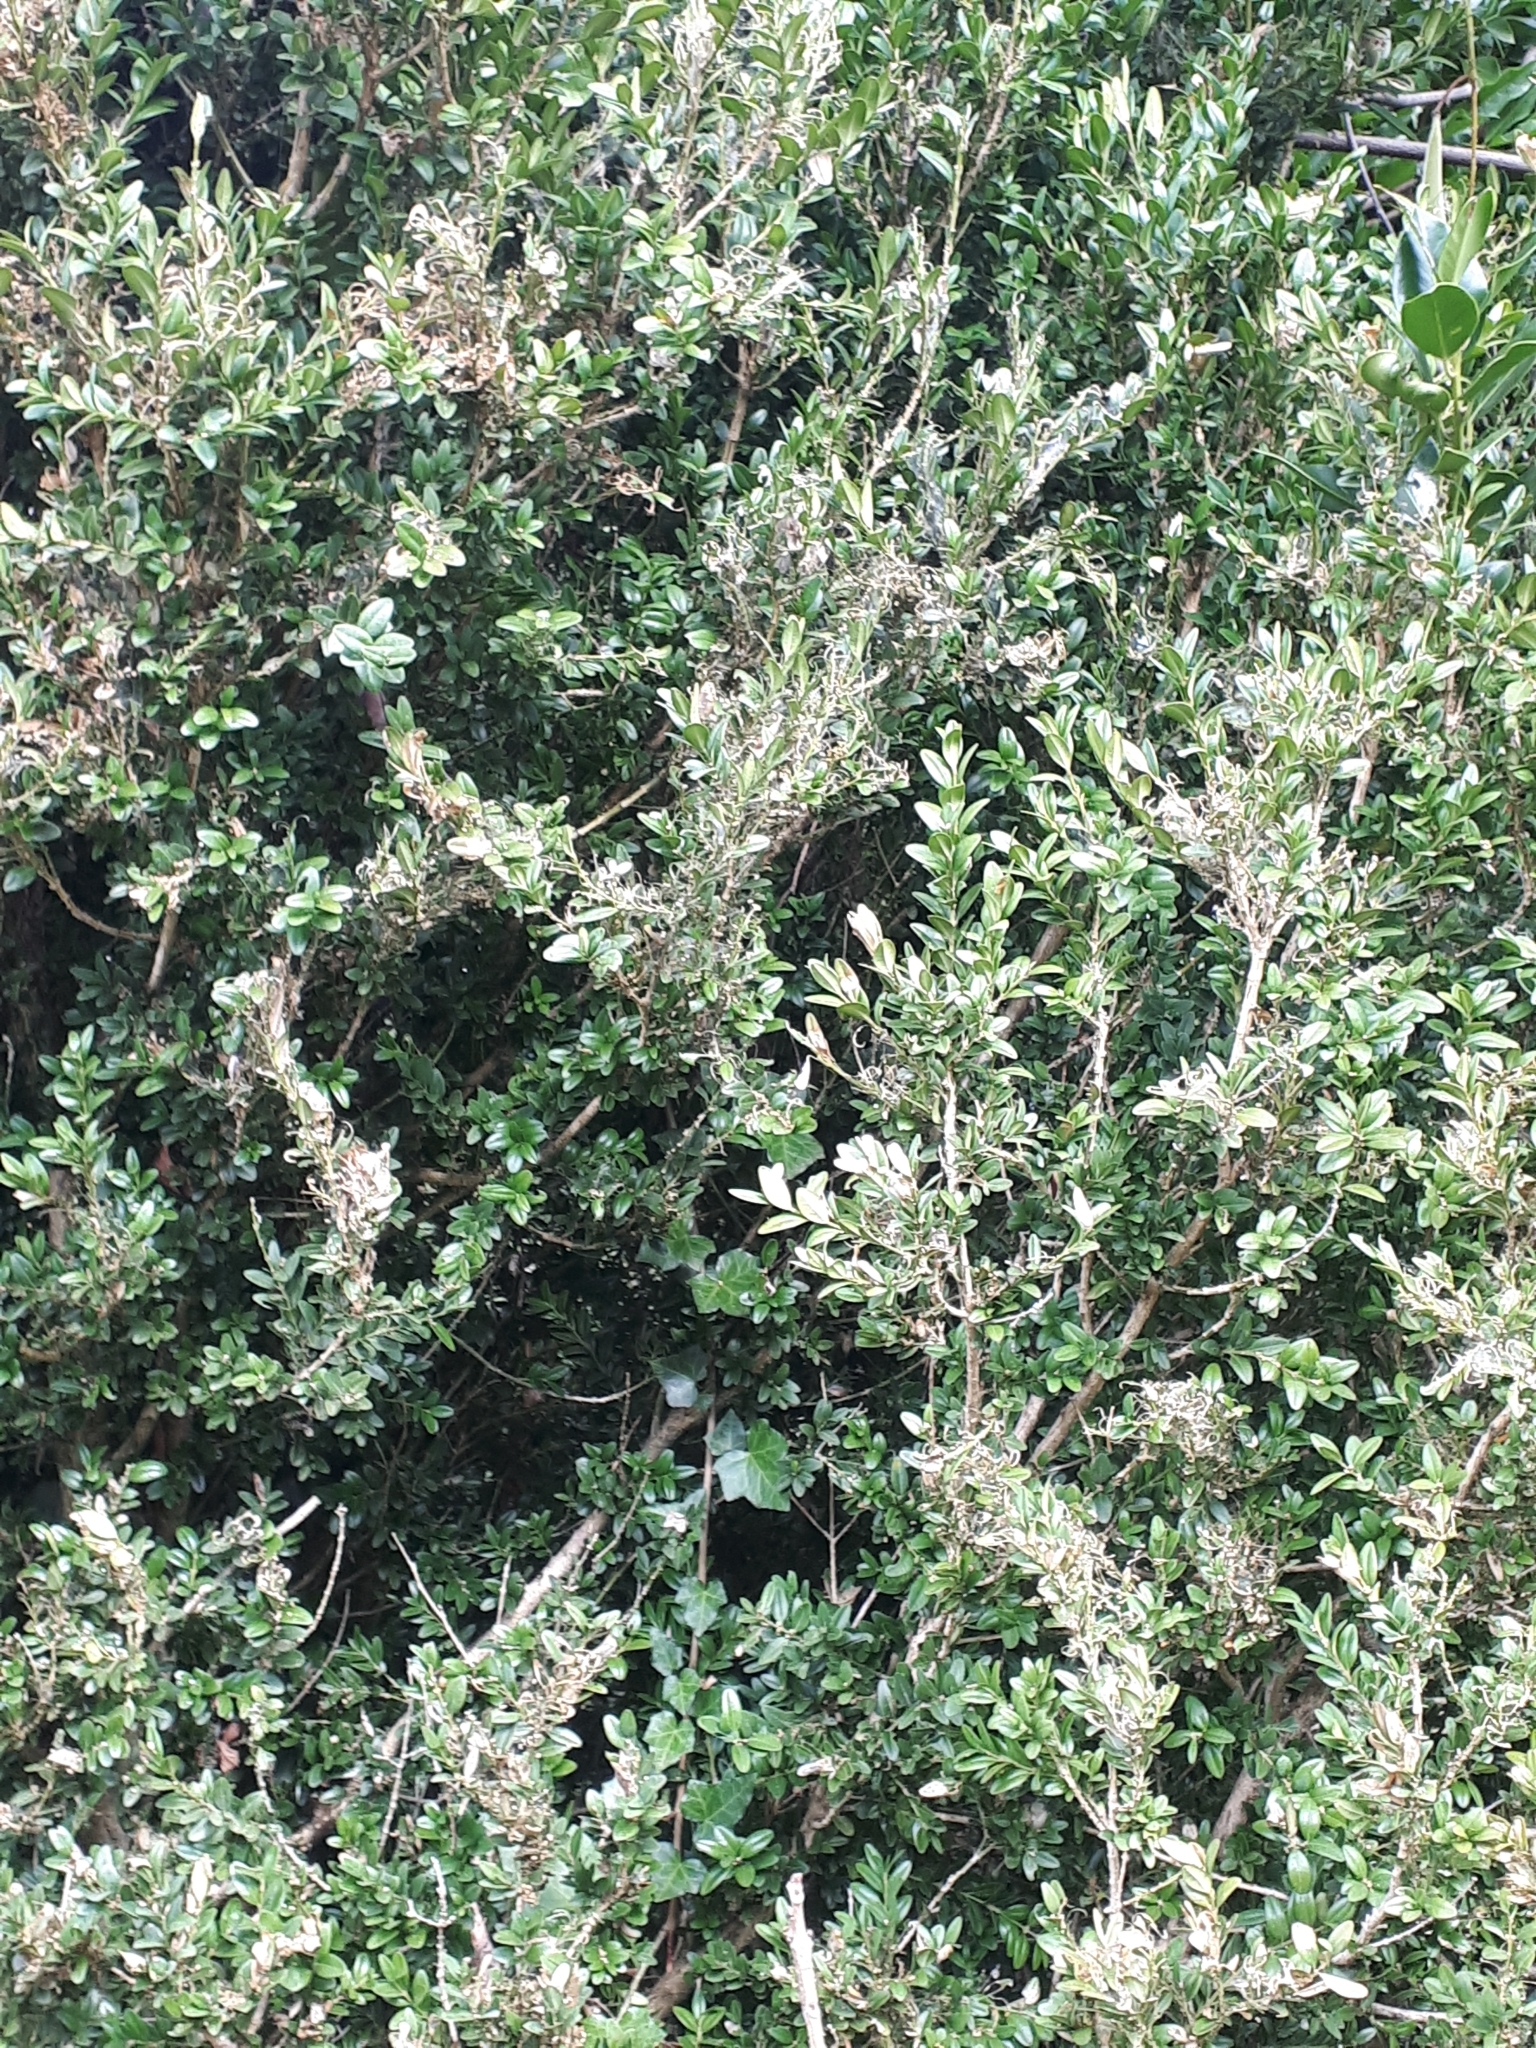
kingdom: Plantae
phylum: Tracheophyta
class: Magnoliopsida
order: Buxales
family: Buxaceae
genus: Buxus
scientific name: Buxus sempervirens
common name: Box
